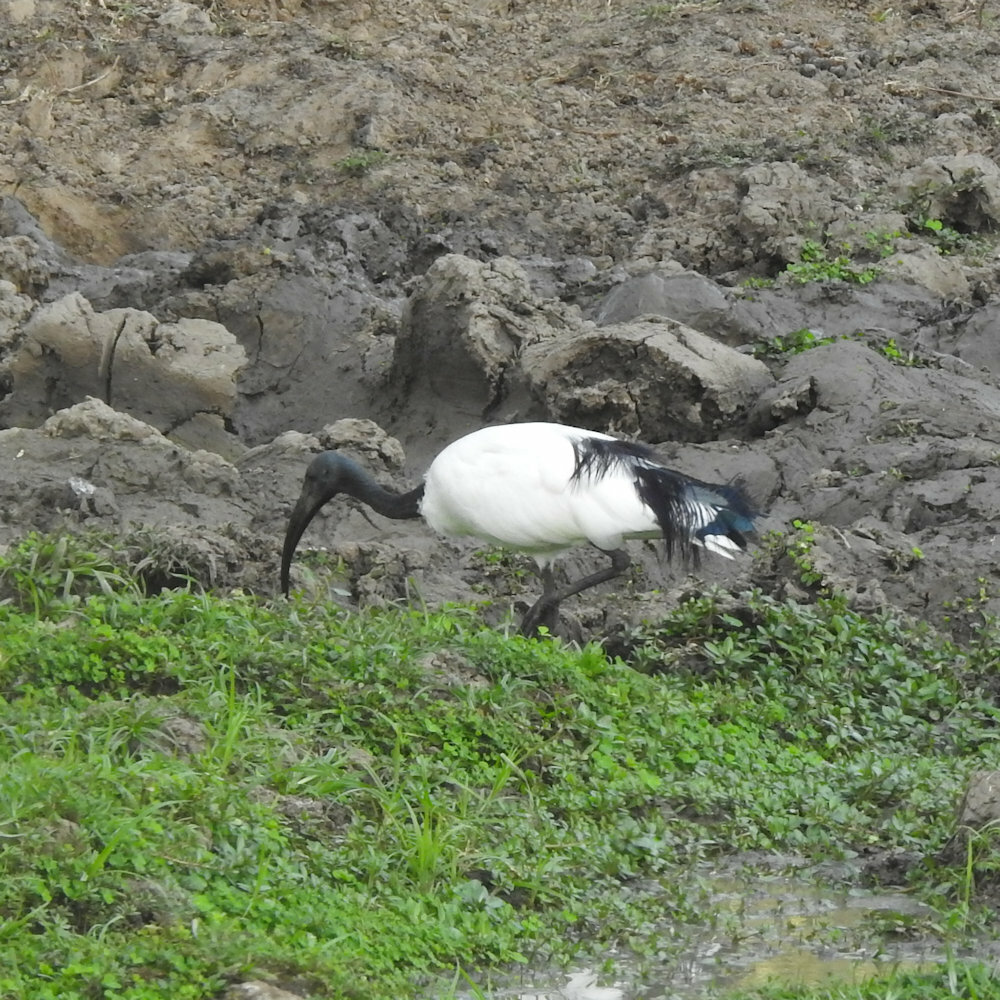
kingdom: Animalia
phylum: Chordata
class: Aves
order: Pelecaniformes
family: Threskiornithidae
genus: Threskiornis
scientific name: Threskiornis aethiopicus
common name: Sacred ibis
